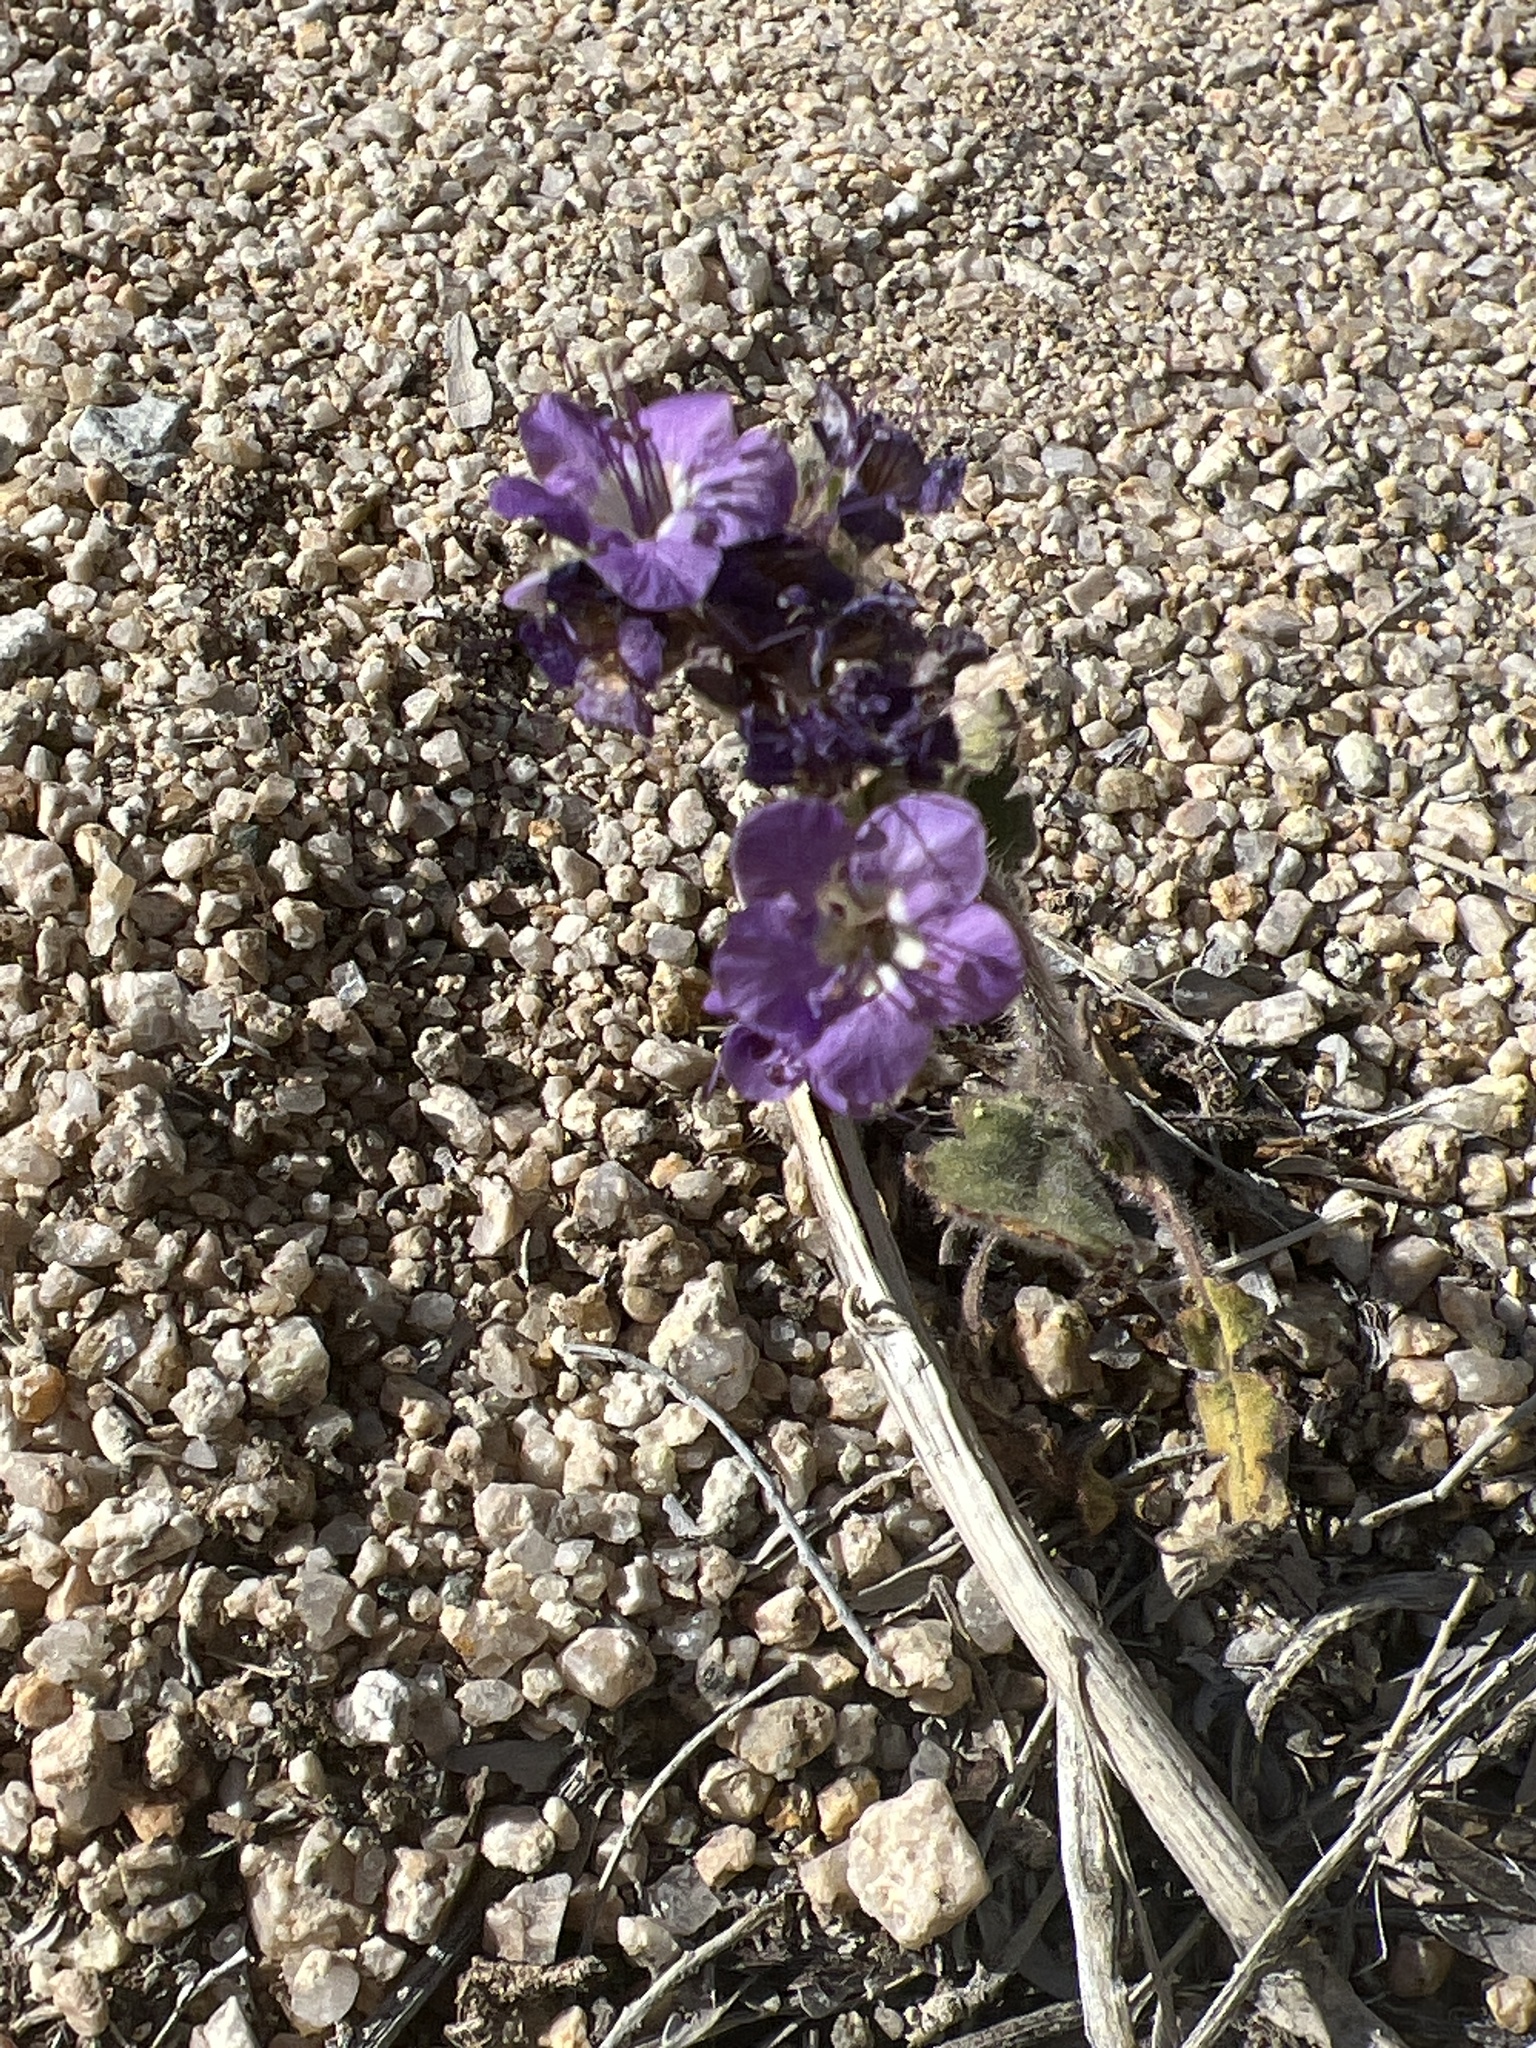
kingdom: Plantae
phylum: Tracheophyta
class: Magnoliopsida
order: Boraginales
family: Hydrophyllaceae
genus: Phacelia
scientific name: Phacelia crenulata
